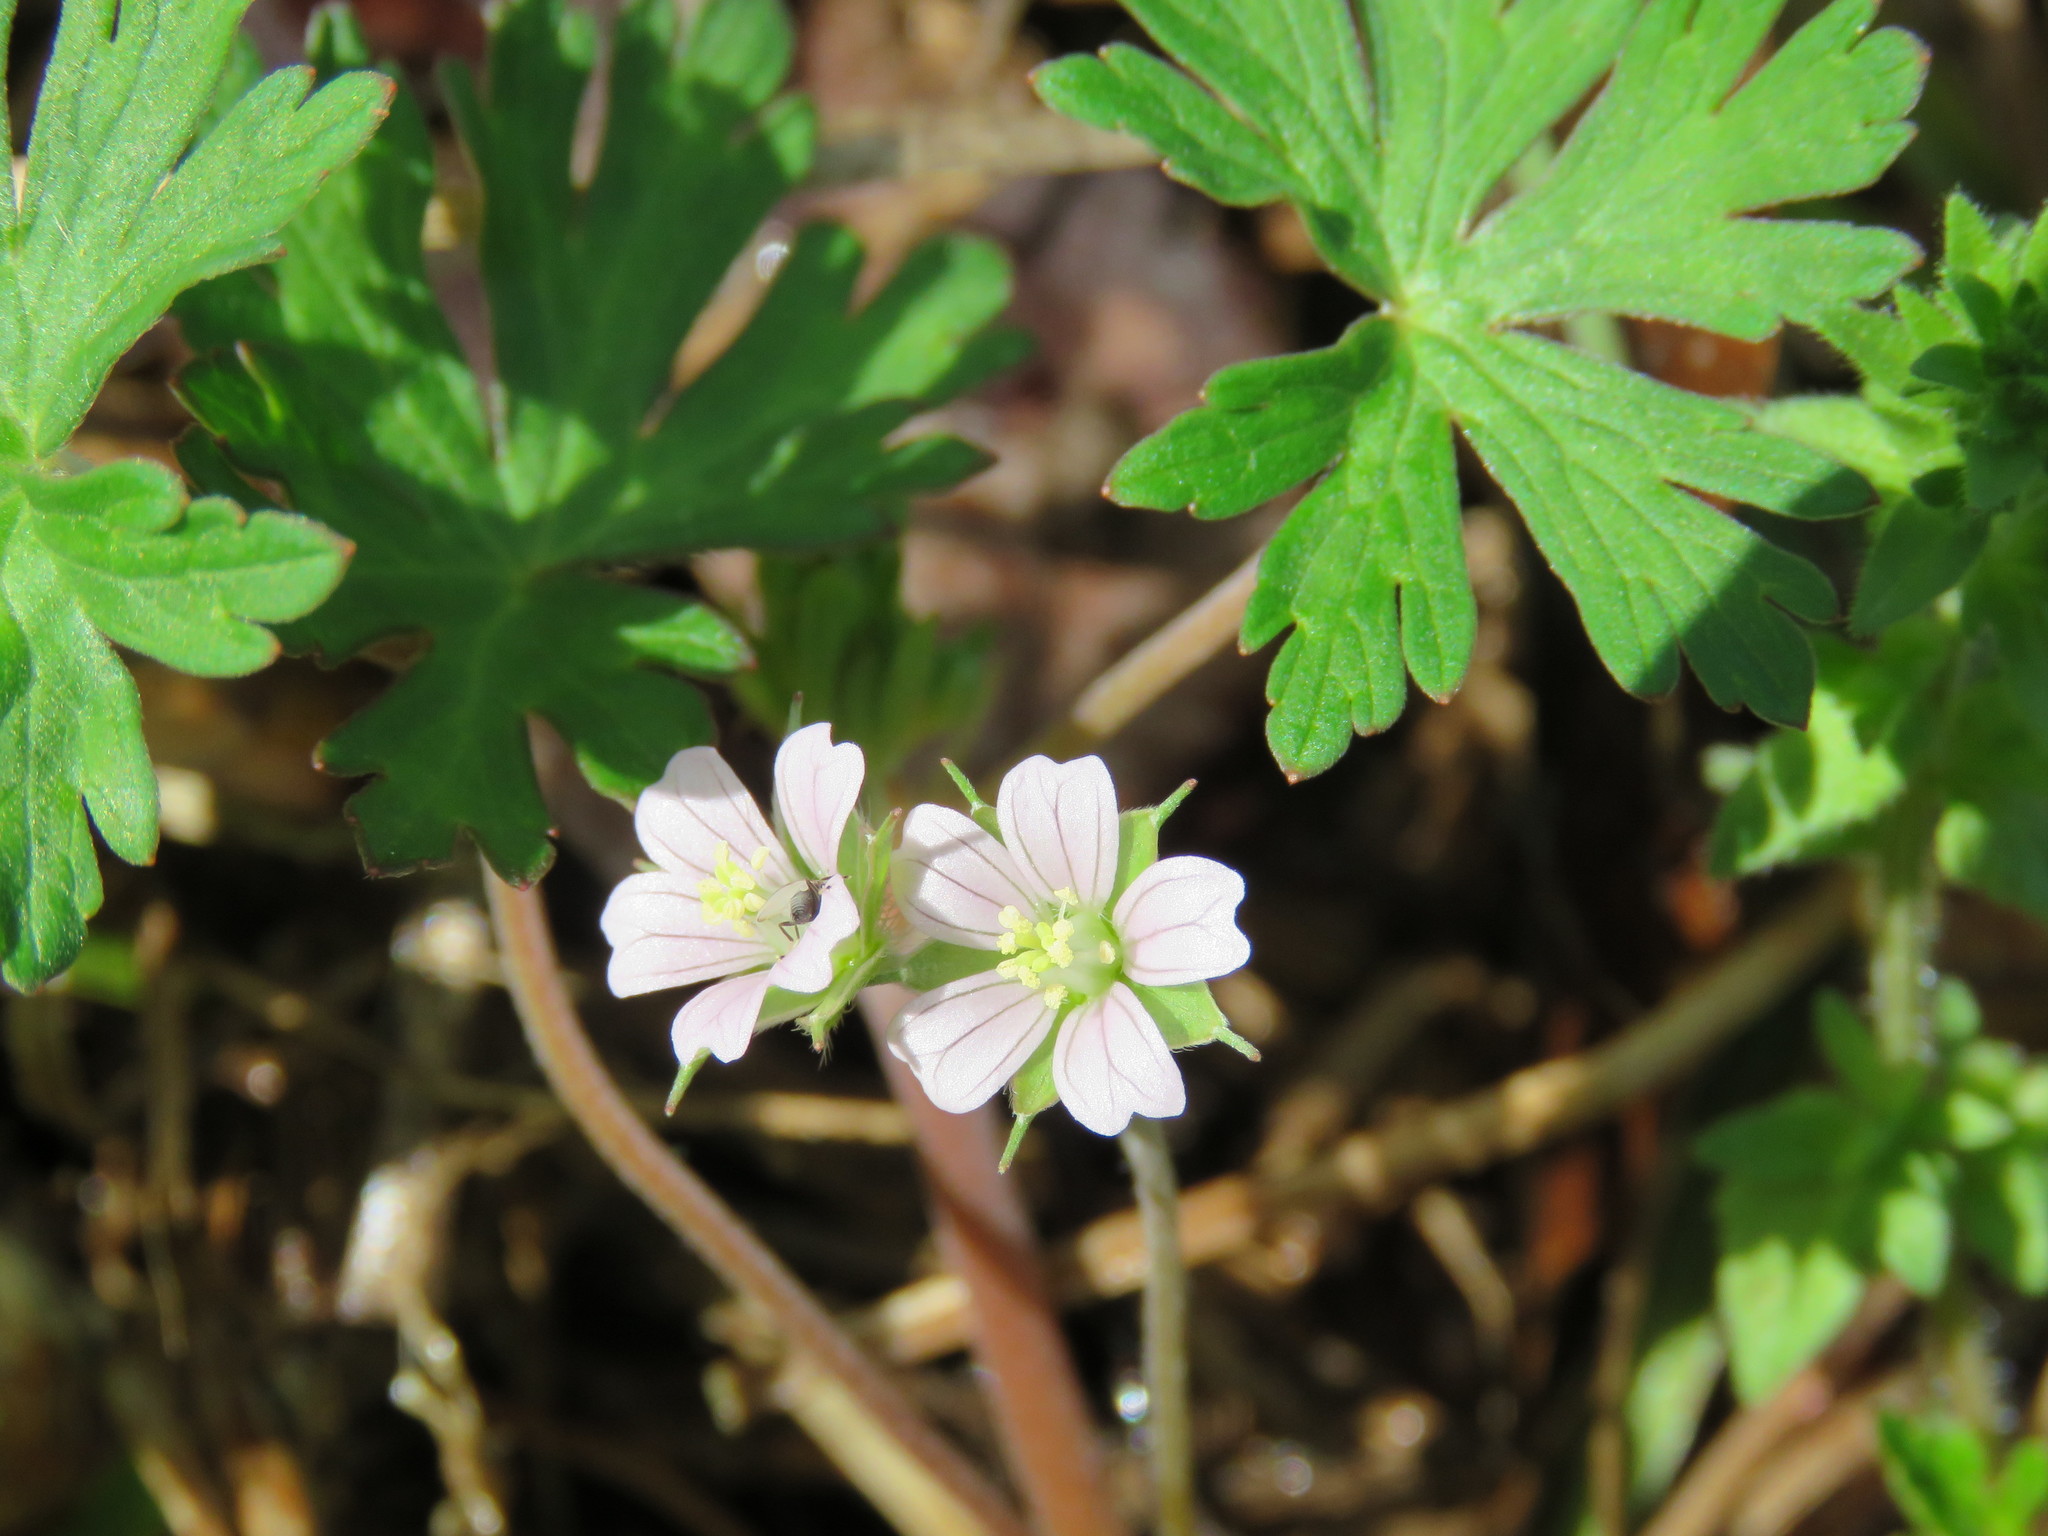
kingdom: Plantae
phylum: Tracheophyta
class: Magnoliopsida
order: Geraniales
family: Geraniaceae
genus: Geranium
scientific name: Geranium carolinianum
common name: Carolina crane's-bill
